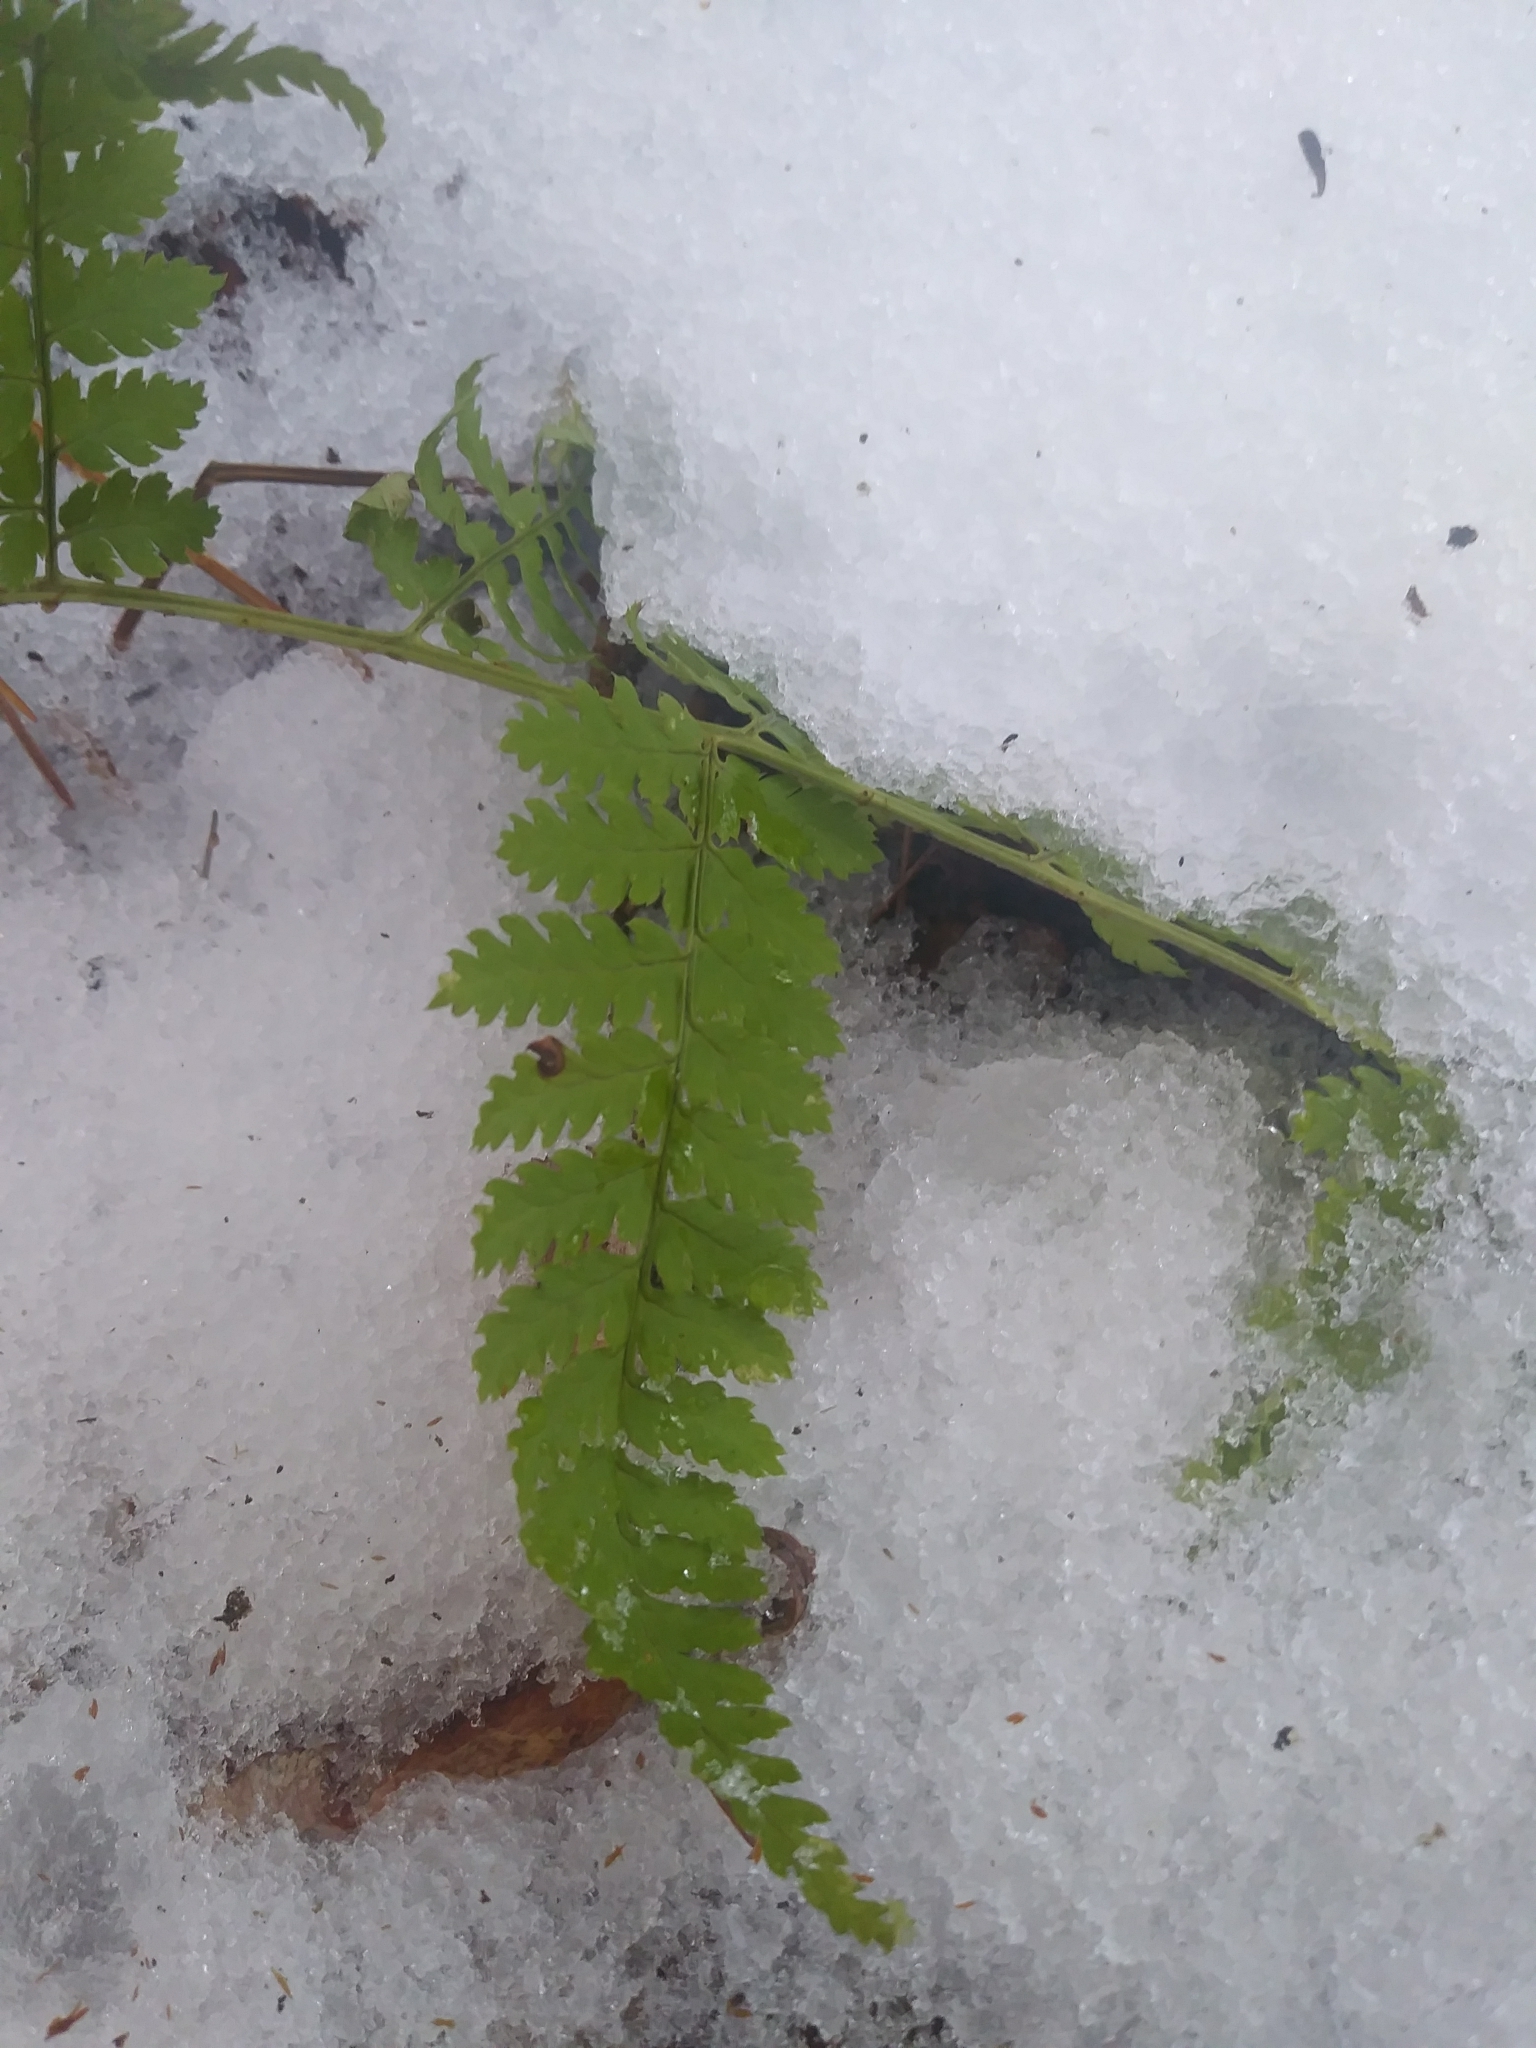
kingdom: Plantae
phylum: Tracheophyta
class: Polypodiopsida
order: Polypodiales
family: Dryopteridaceae
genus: Dryopteris
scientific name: Dryopteris intermedia
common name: Evergreen wood fern
